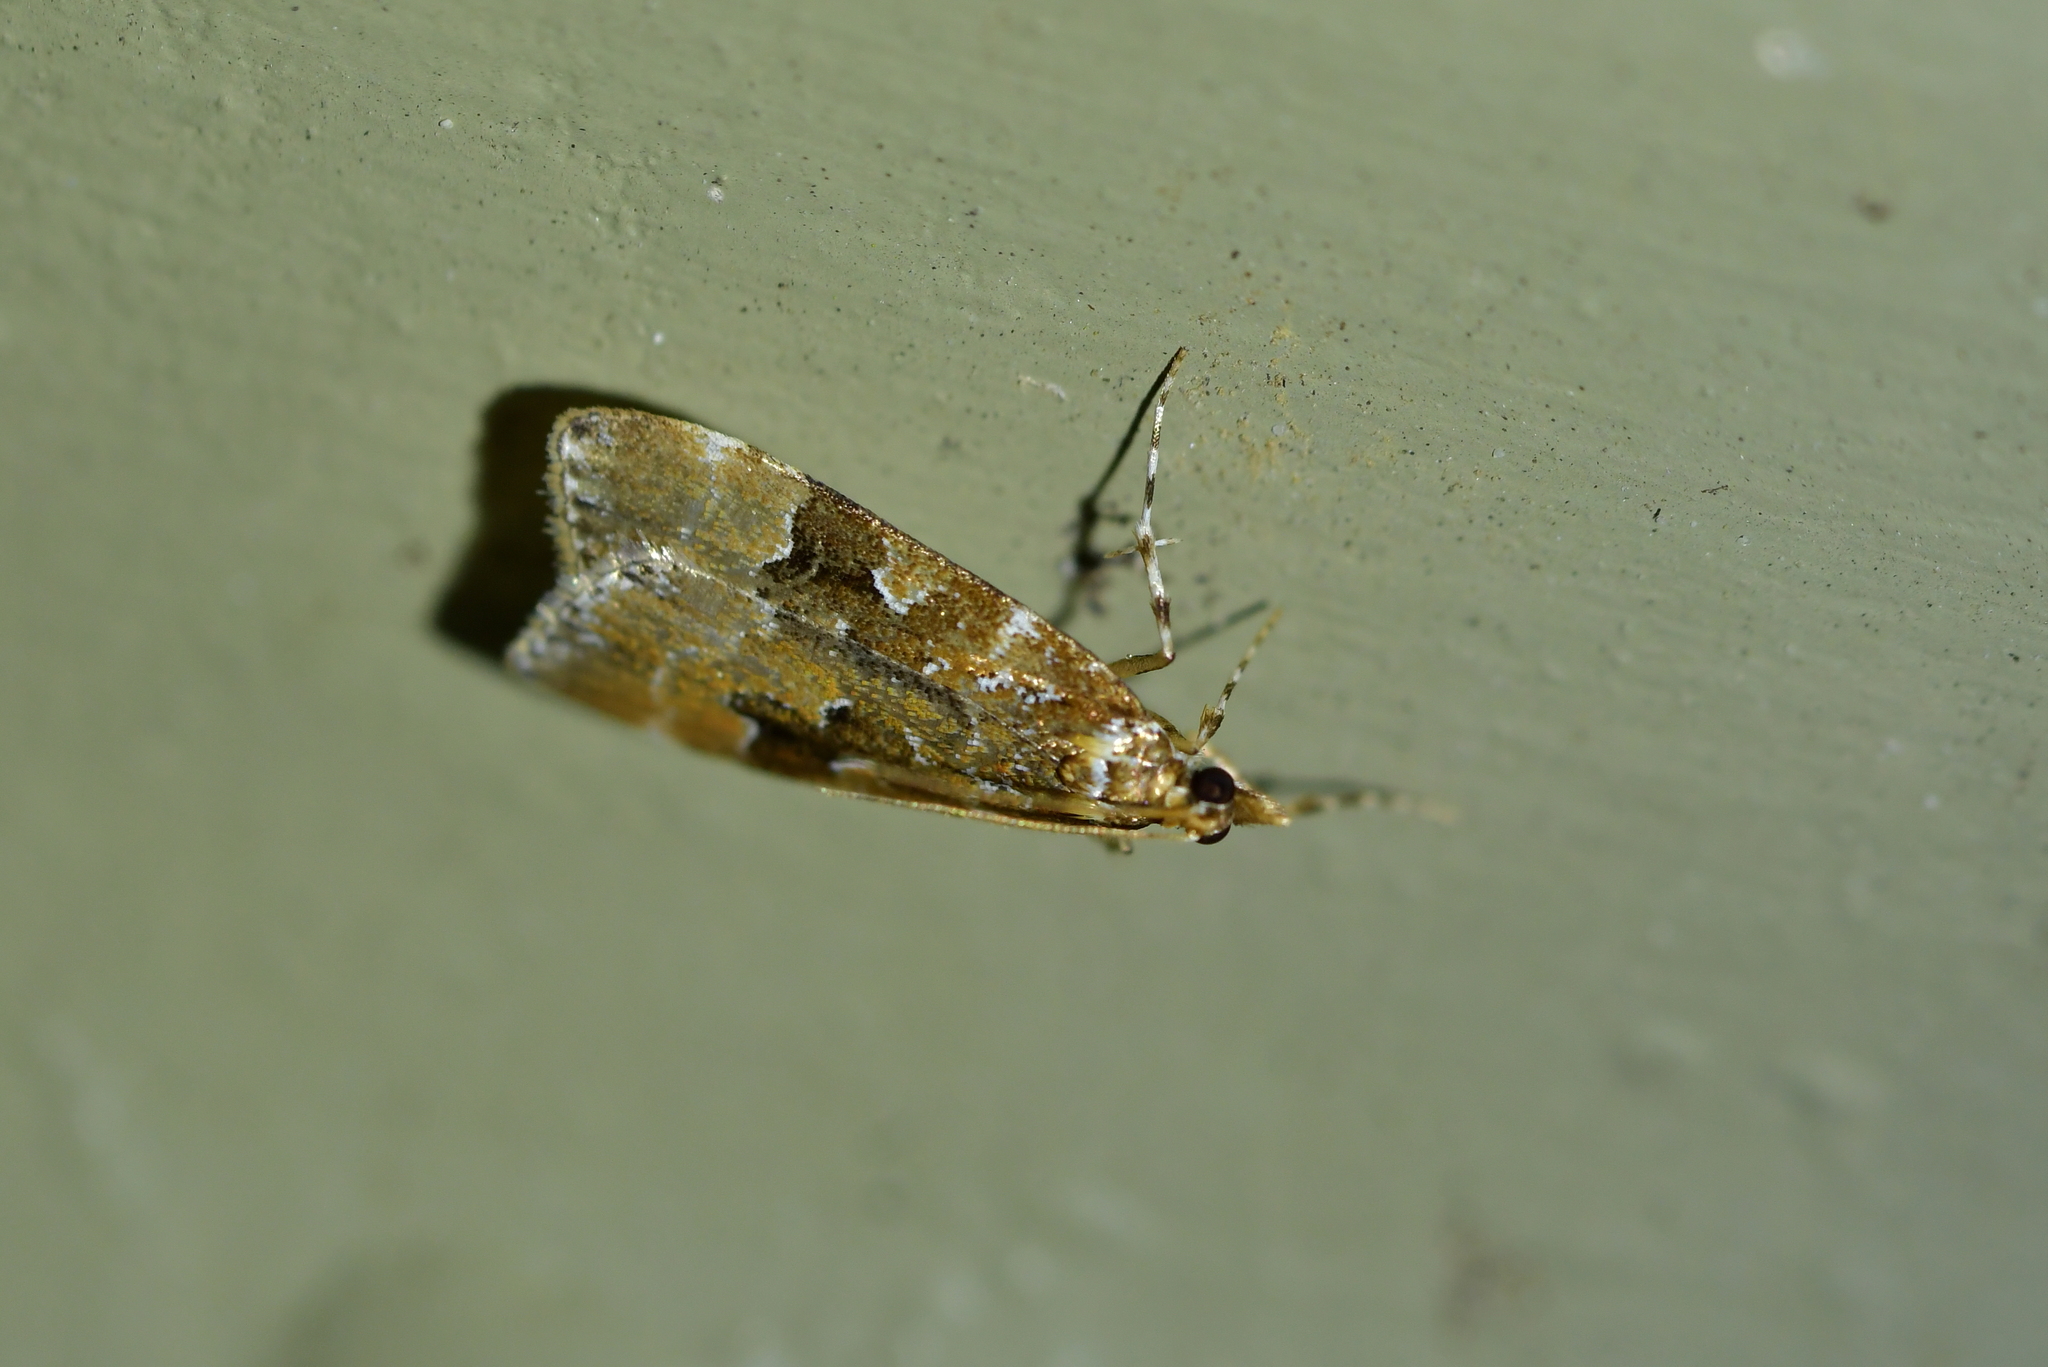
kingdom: Animalia
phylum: Arthropoda
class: Insecta
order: Lepidoptera
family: Crambidae
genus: Scoparia
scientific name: Scoparia ustimacula
